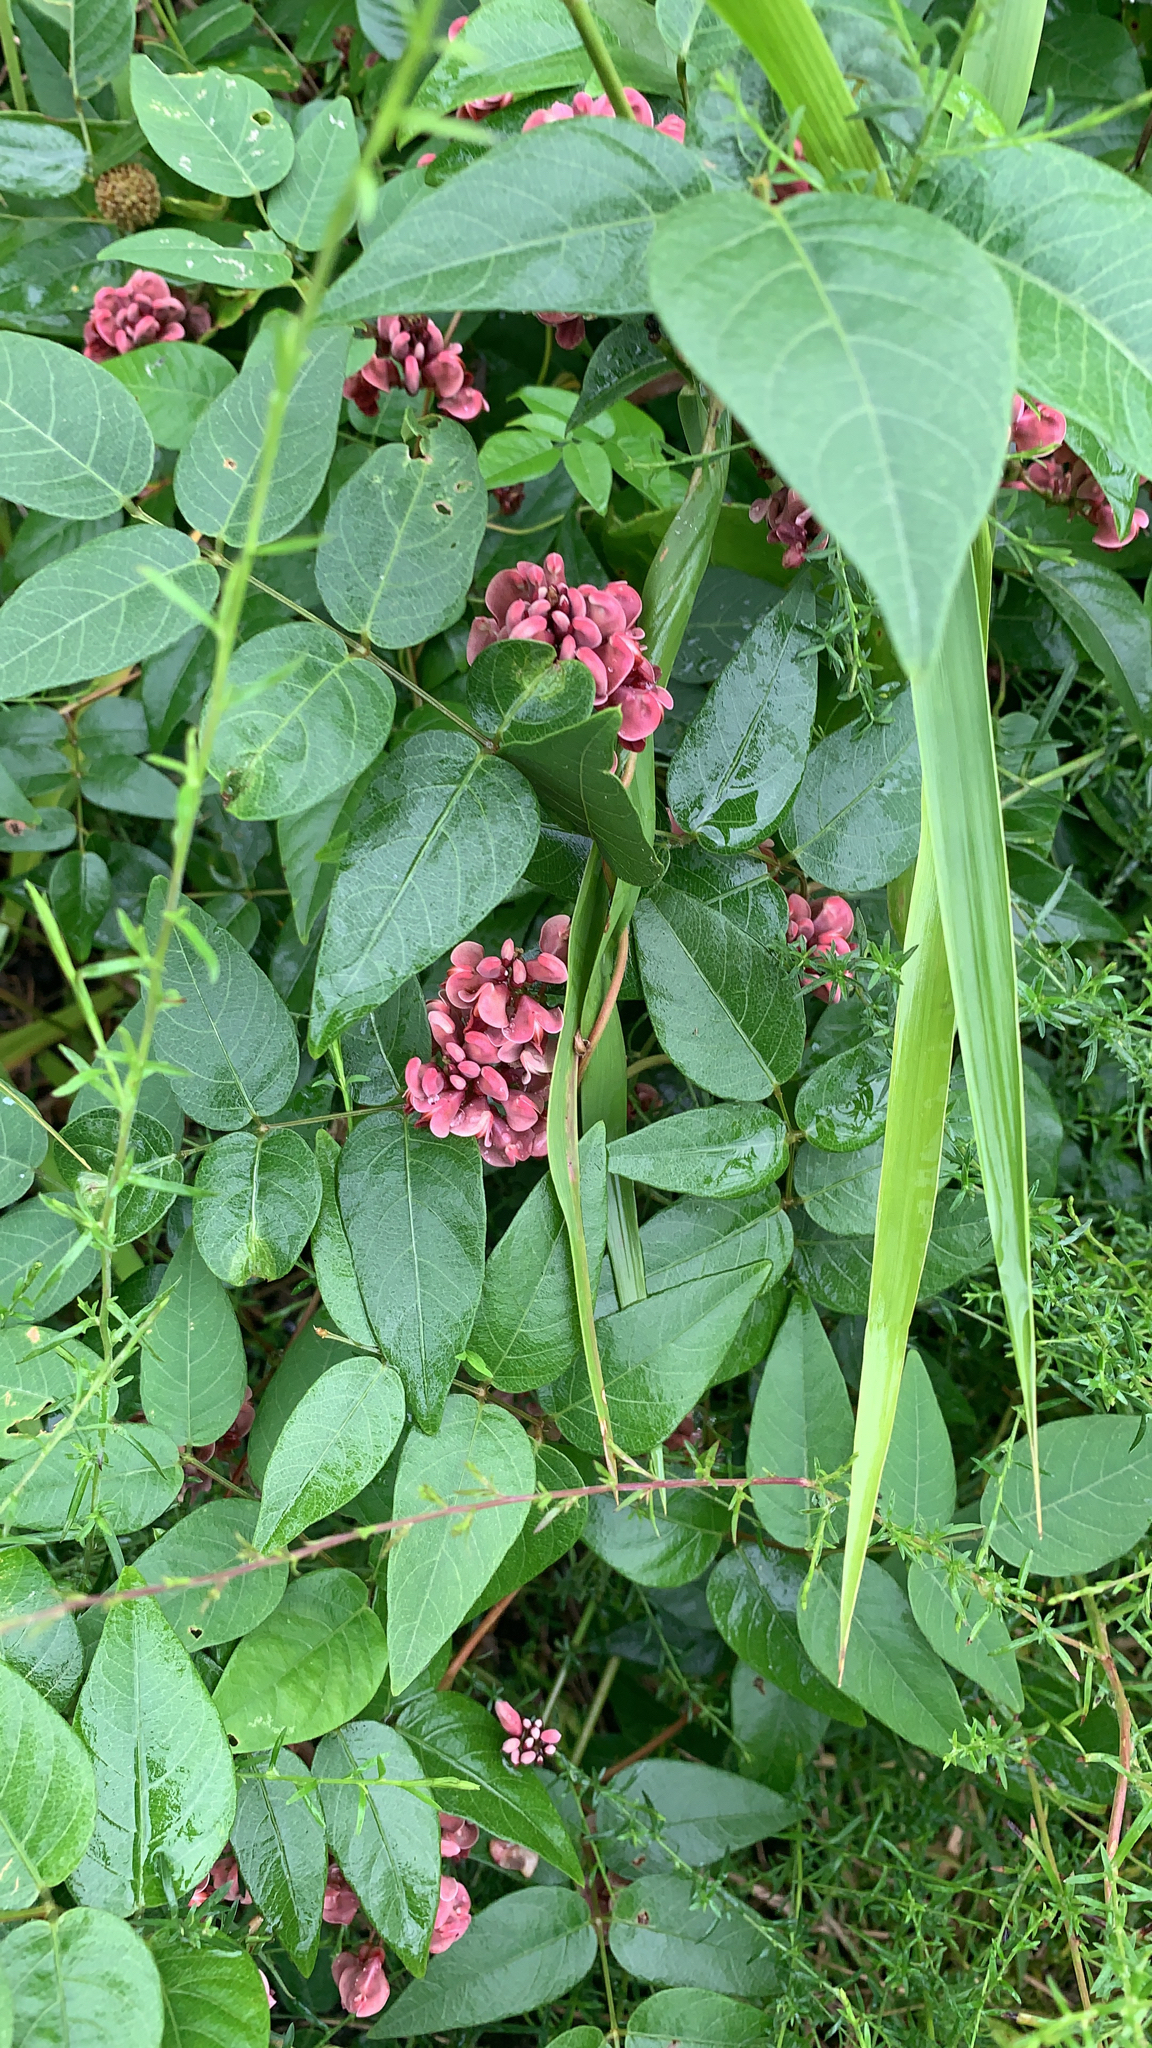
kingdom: Plantae
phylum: Tracheophyta
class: Magnoliopsida
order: Fabales
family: Fabaceae
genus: Apios
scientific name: Apios americana
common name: American potato-bean
